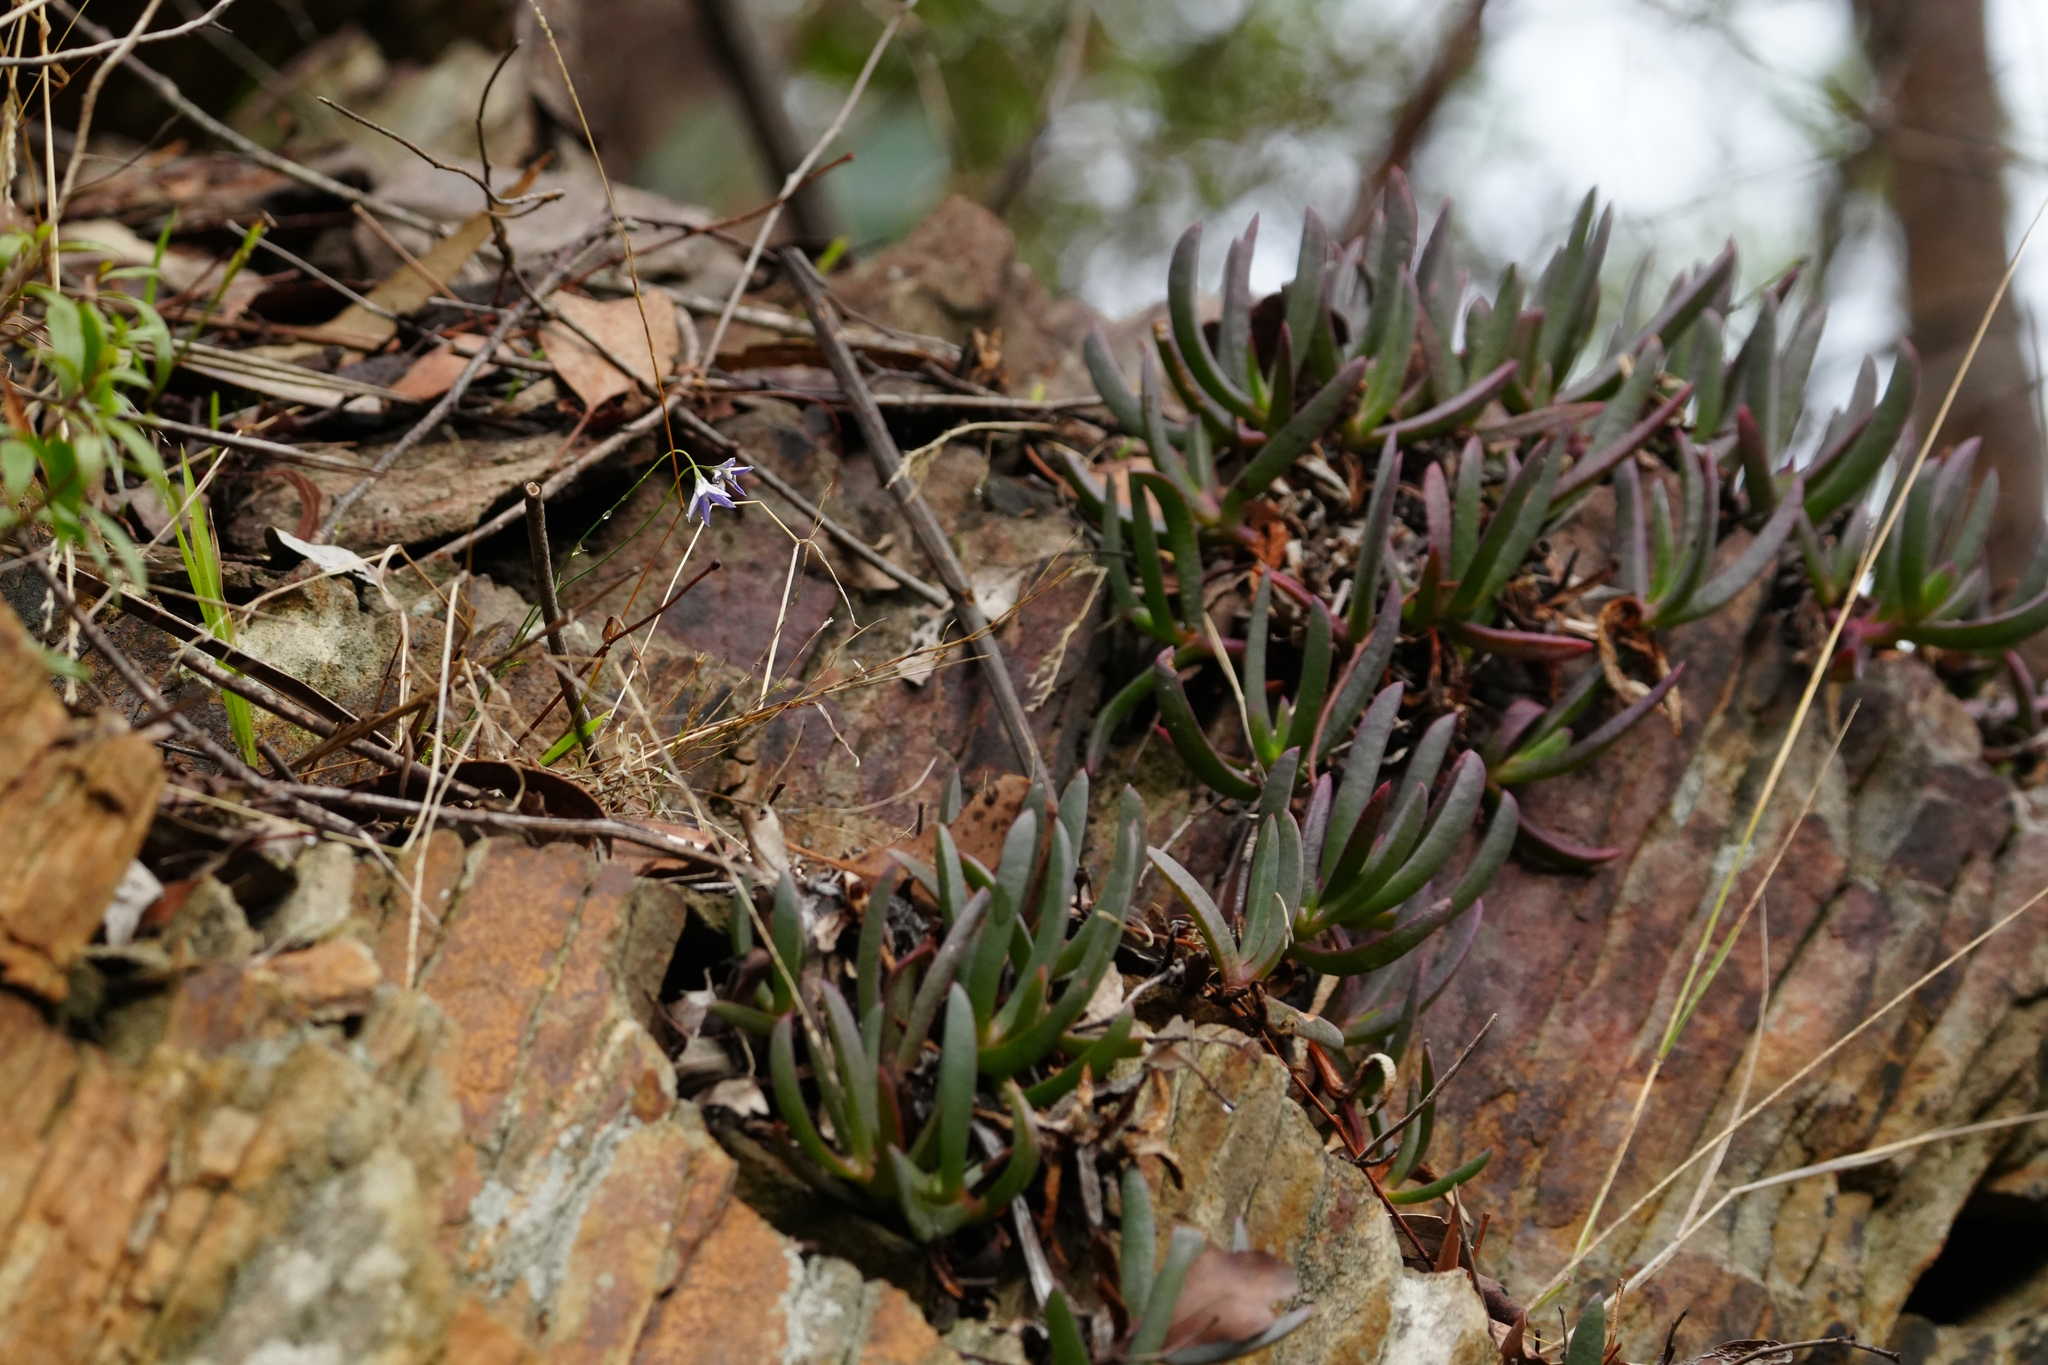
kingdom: Plantae
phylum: Tracheophyta
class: Magnoliopsida
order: Caryophyllales
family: Aizoaceae
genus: Carpobrotus
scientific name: Carpobrotus modestus
